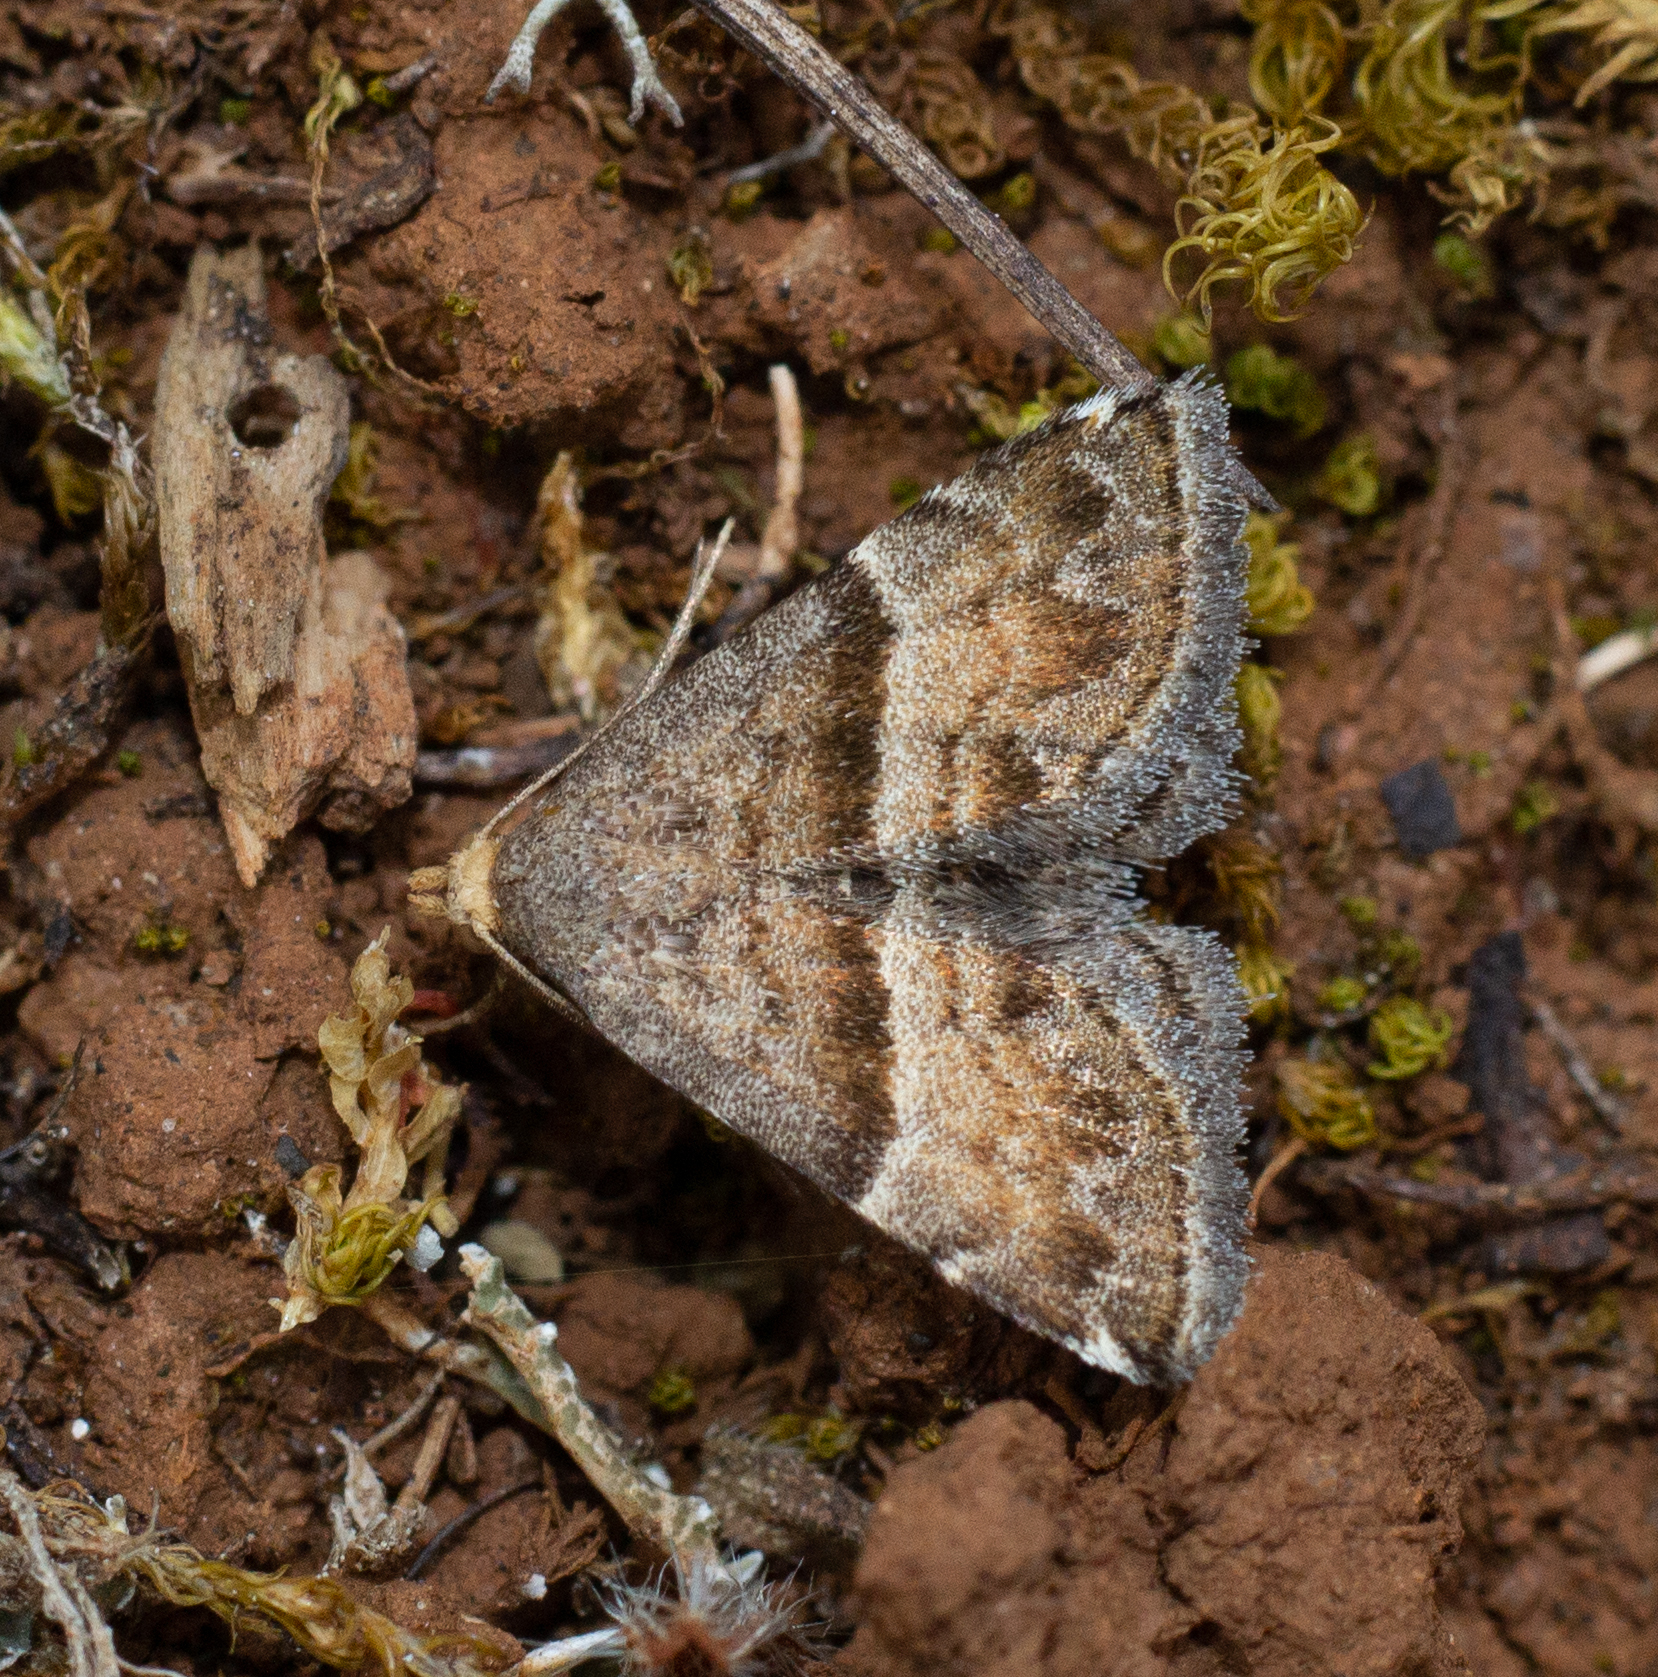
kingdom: Animalia
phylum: Arthropoda
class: Insecta
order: Lepidoptera
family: Noctuidae
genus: Odice
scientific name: Odice jucunda
